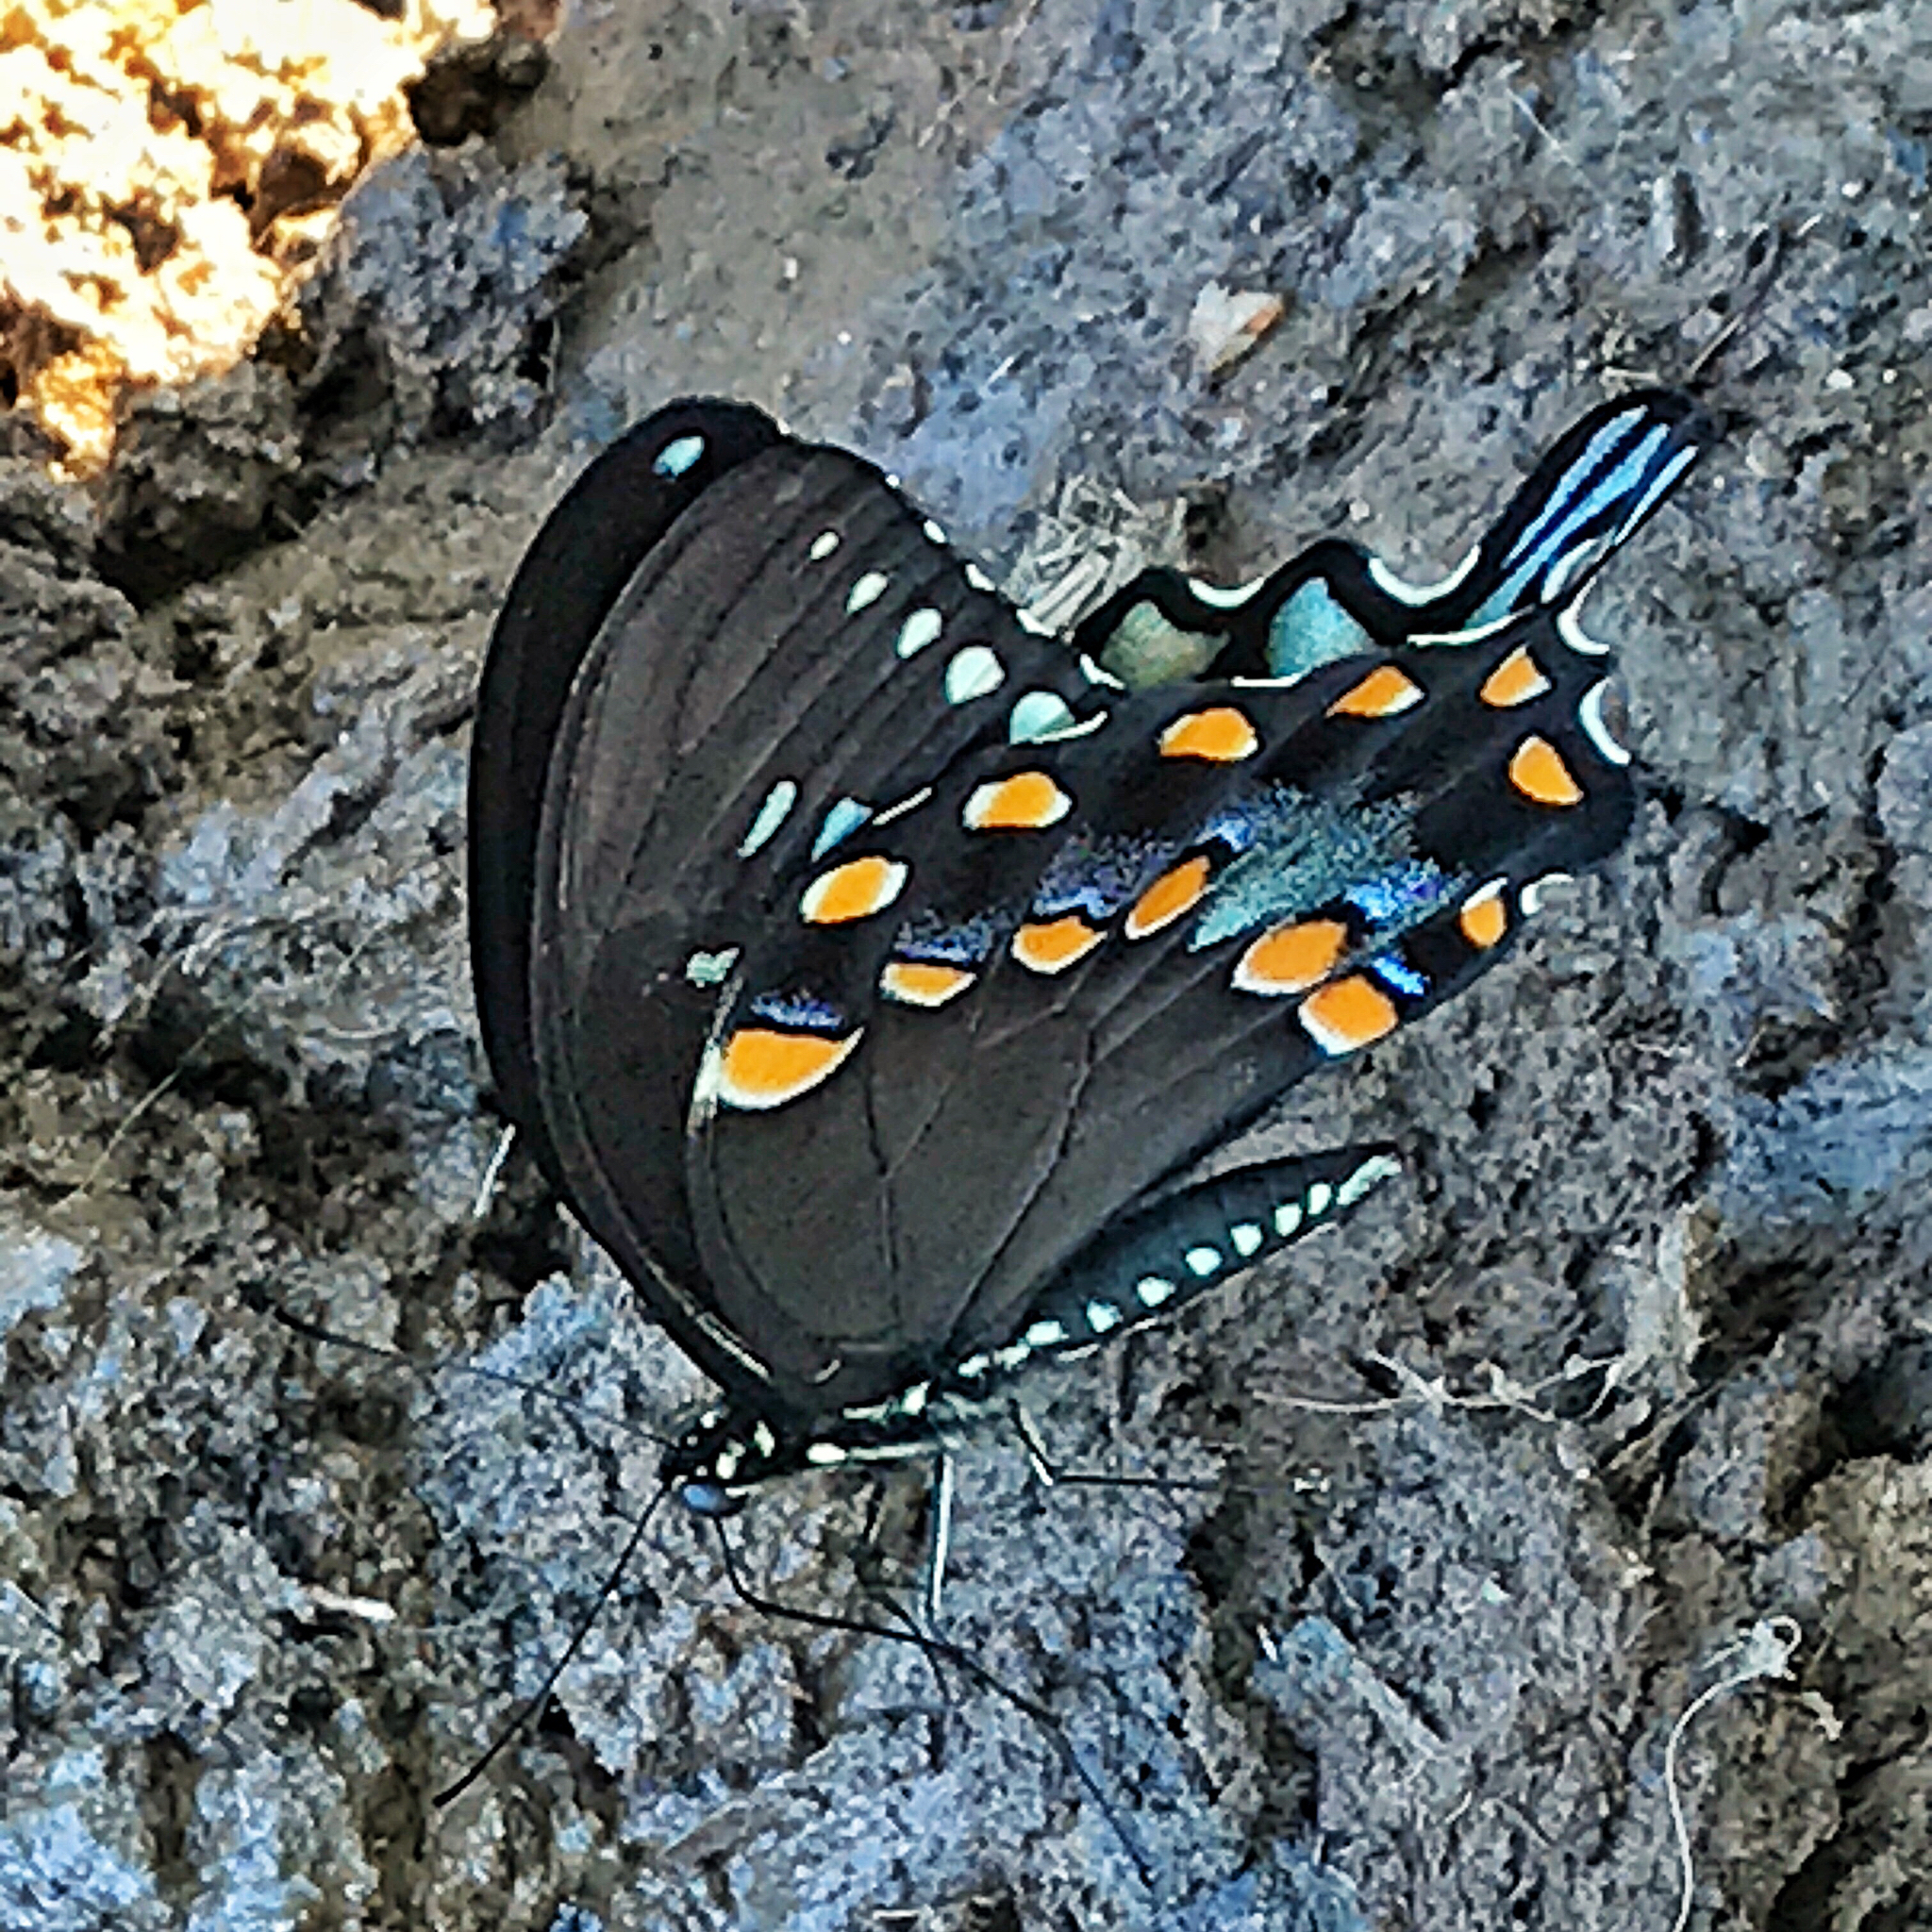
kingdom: Animalia
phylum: Arthropoda
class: Insecta
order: Lepidoptera
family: Papilionidae
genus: Papilio
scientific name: Papilio troilus
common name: Spicebush swallowtail
